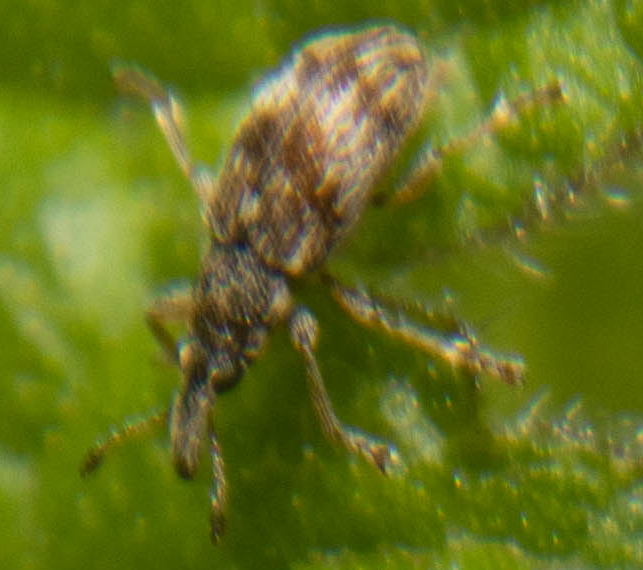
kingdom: Animalia
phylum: Arthropoda
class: Insecta
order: Coleoptera
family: Apionidae
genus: Taeniapion
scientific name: Taeniapion urticarium
